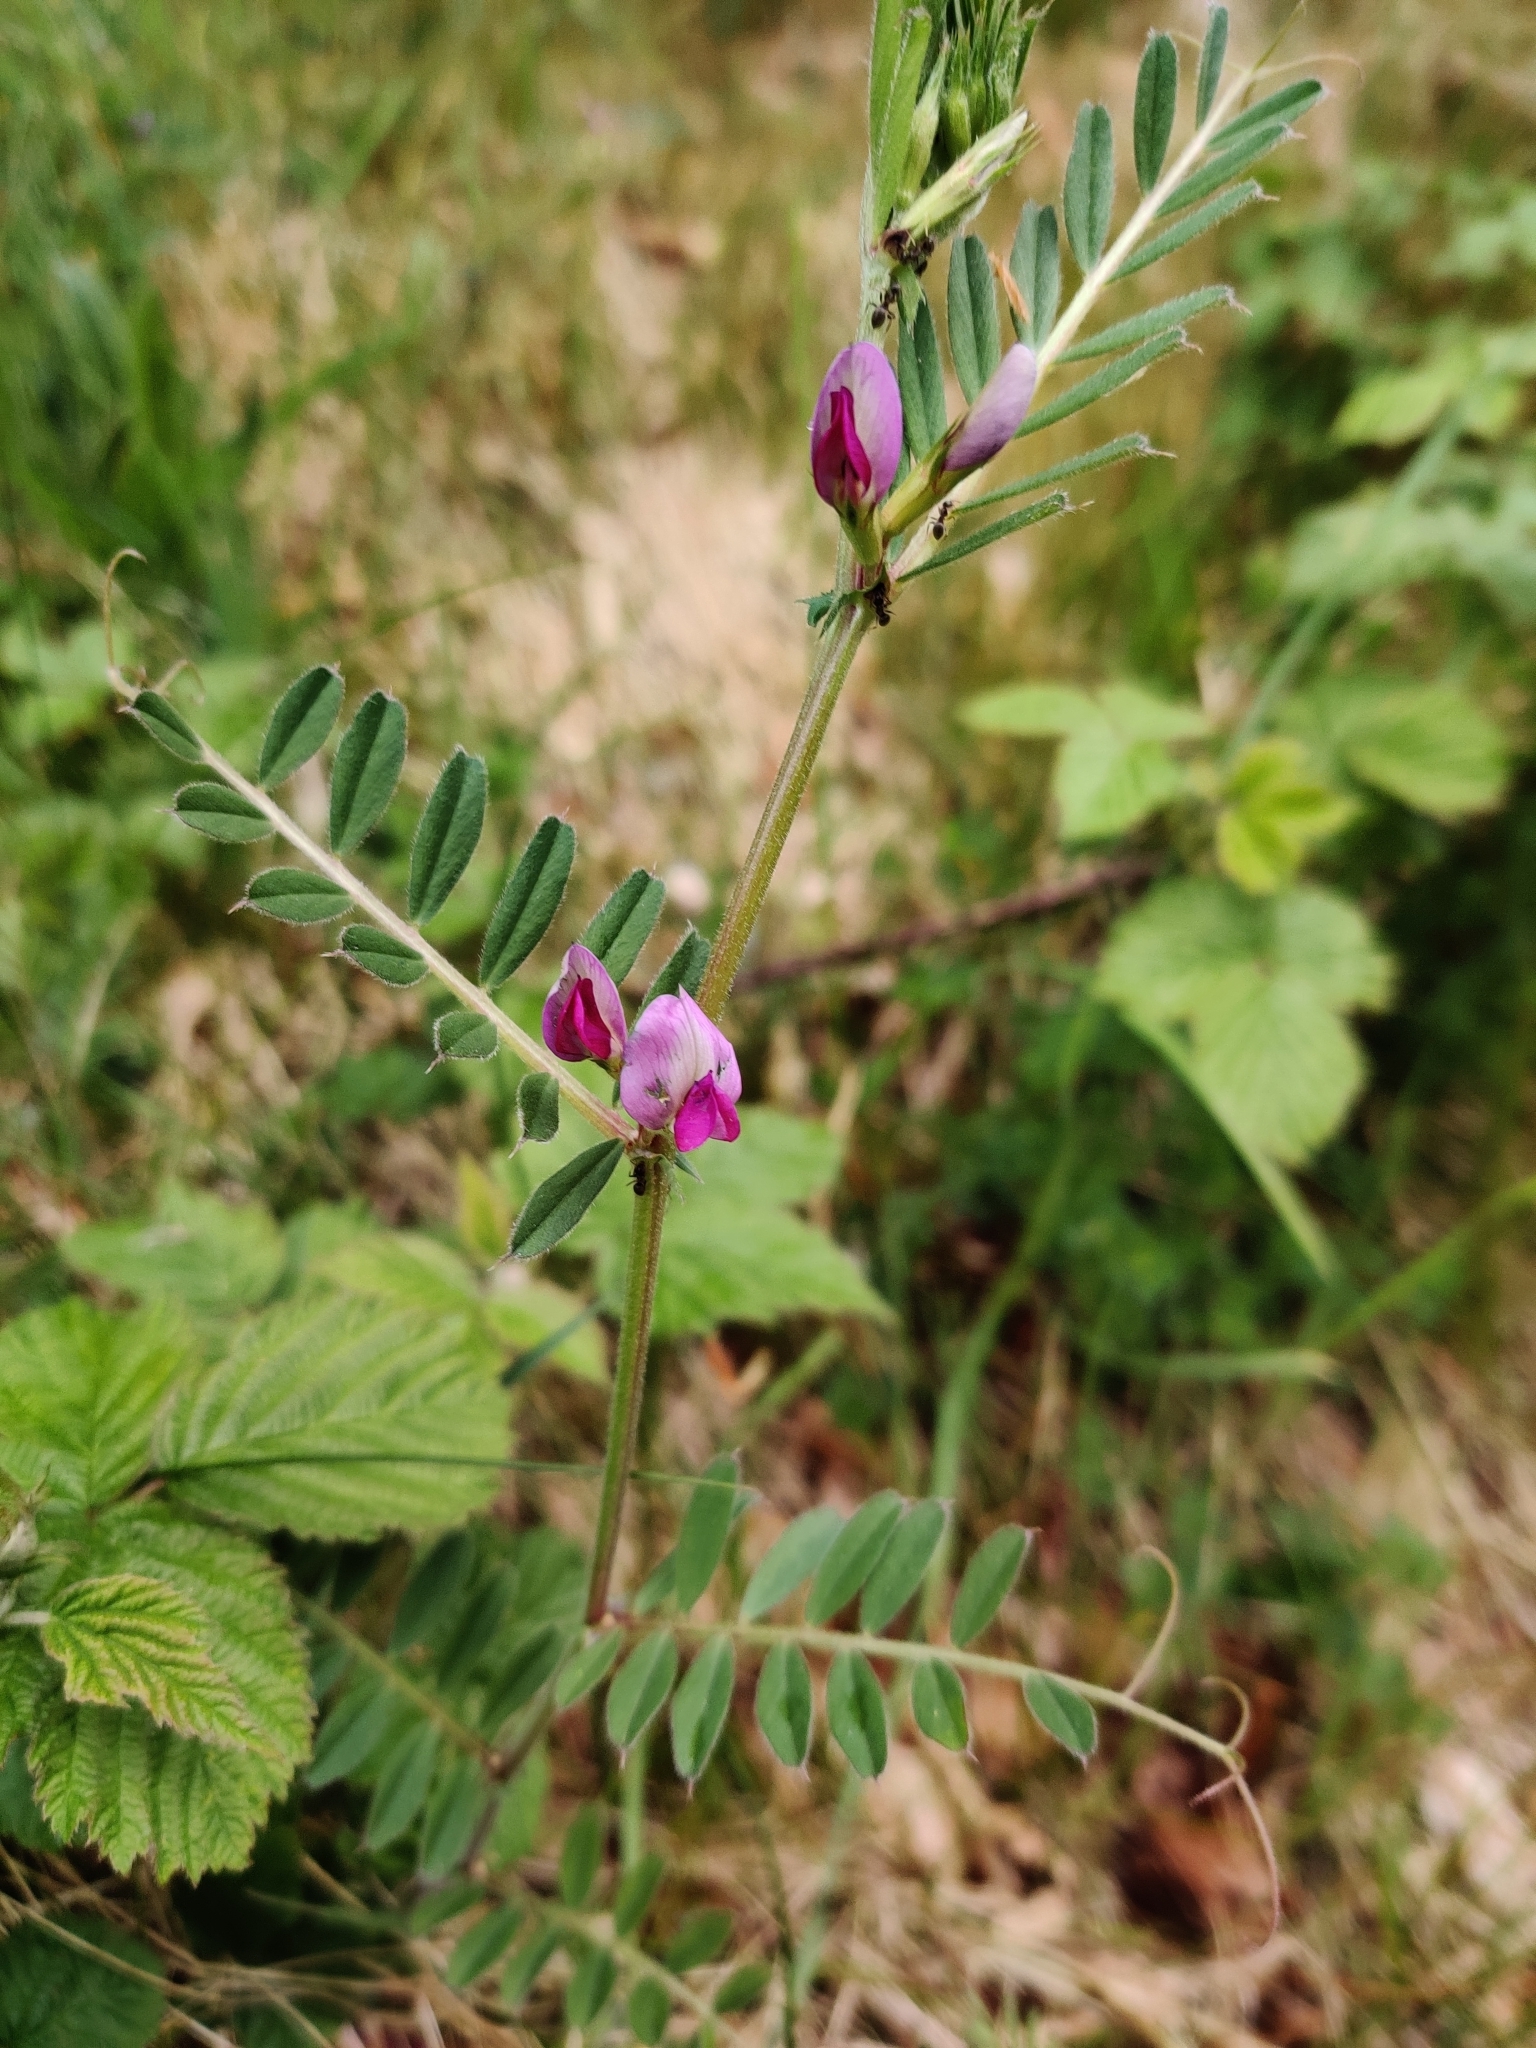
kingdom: Plantae
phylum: Tracheophyta
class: Magnoliopsida
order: Fabales
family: Fabaceae
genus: Vicia
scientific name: Vicia sativa
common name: Garden vetch
